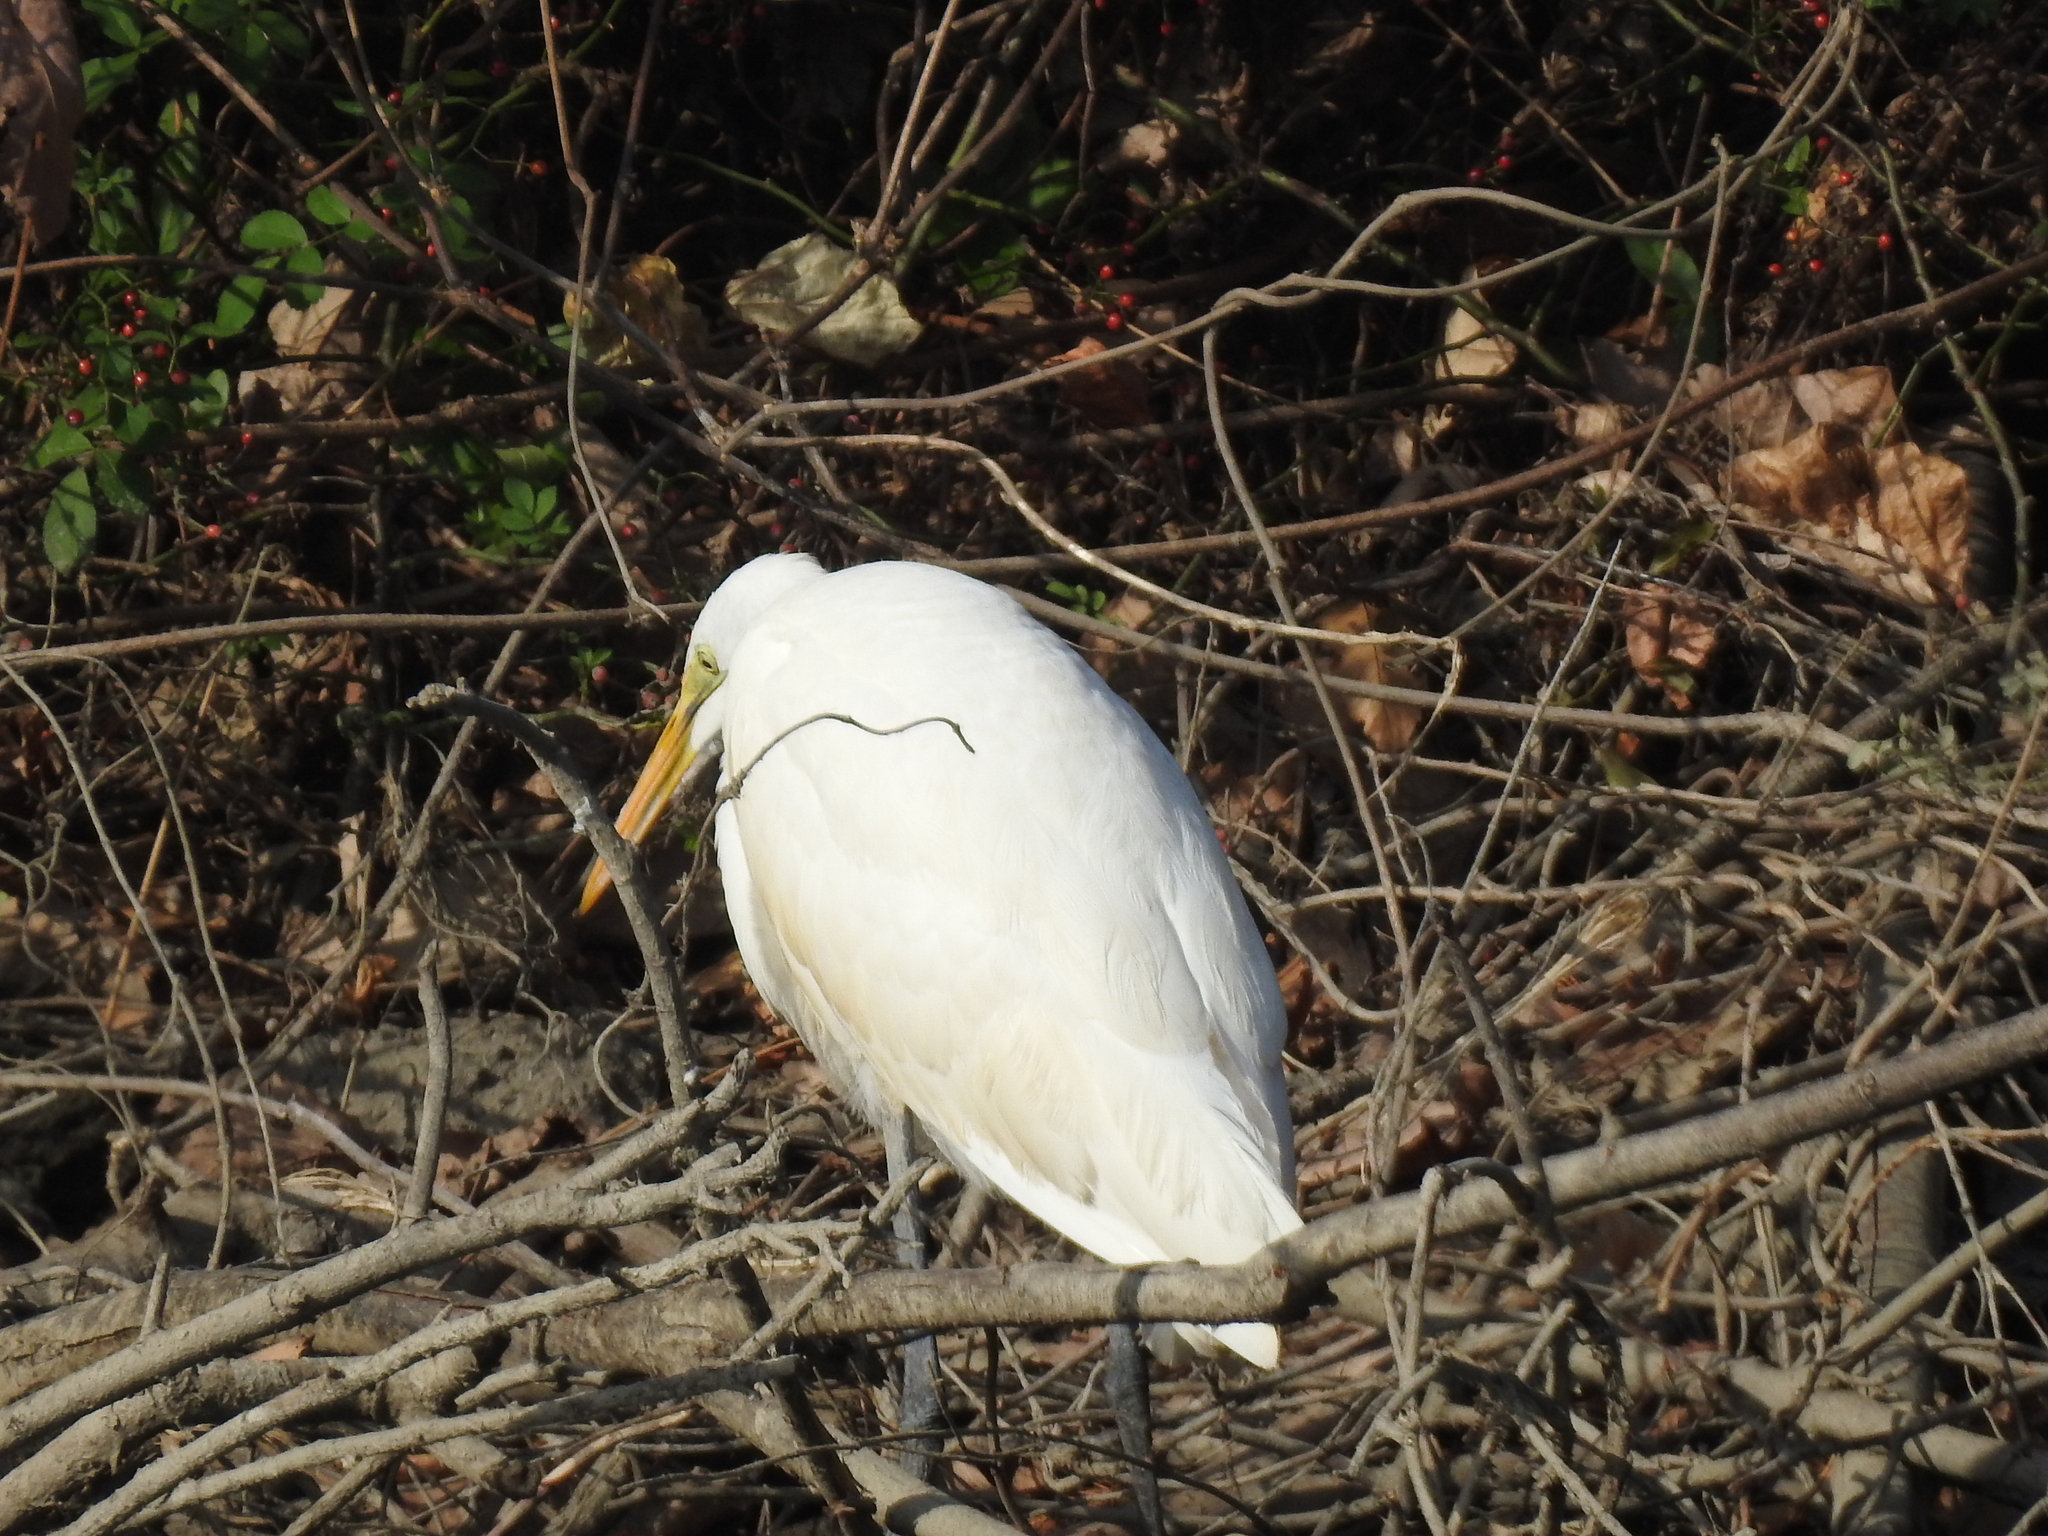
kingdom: Animalia
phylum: Chordata
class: Aves
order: Pelecaniformes
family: Ardeidae
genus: Ardea
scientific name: Ardea alba
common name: Great egret
